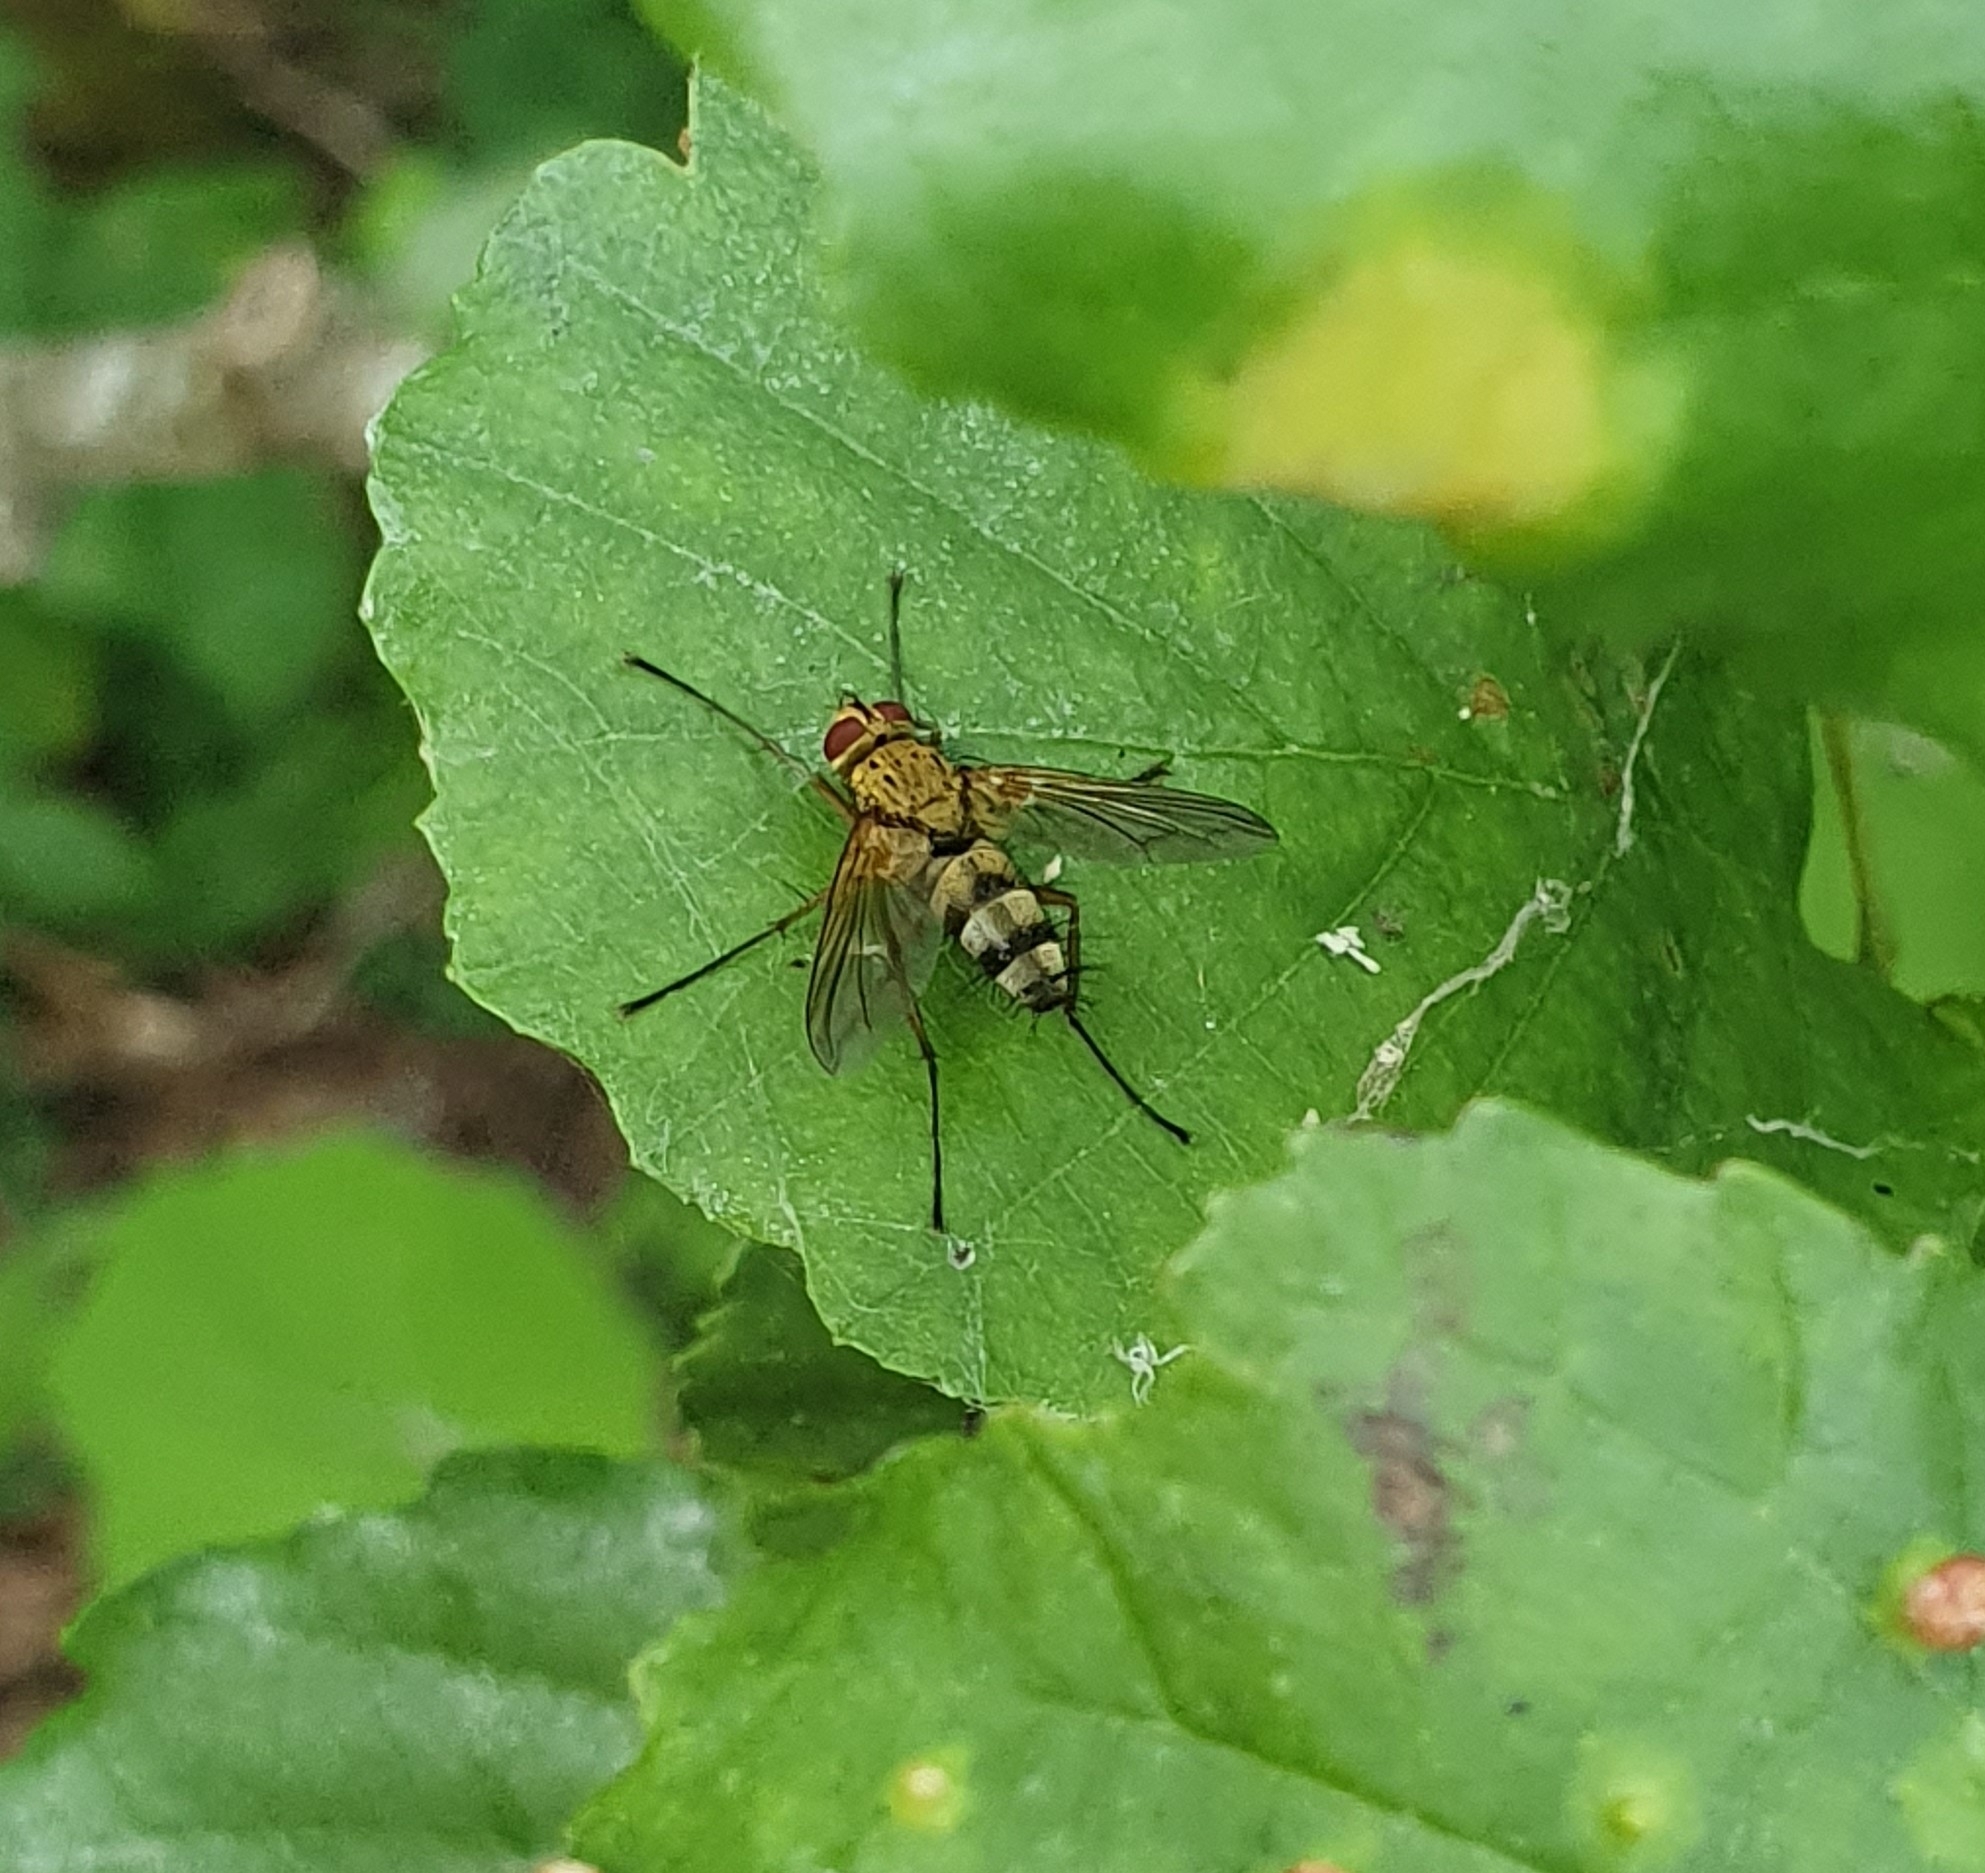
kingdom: Animalia
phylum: Arthropoda
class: Insecta
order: Diptera
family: Tachinidae
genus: Dexiosoma
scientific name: Dexiosoma caninum
